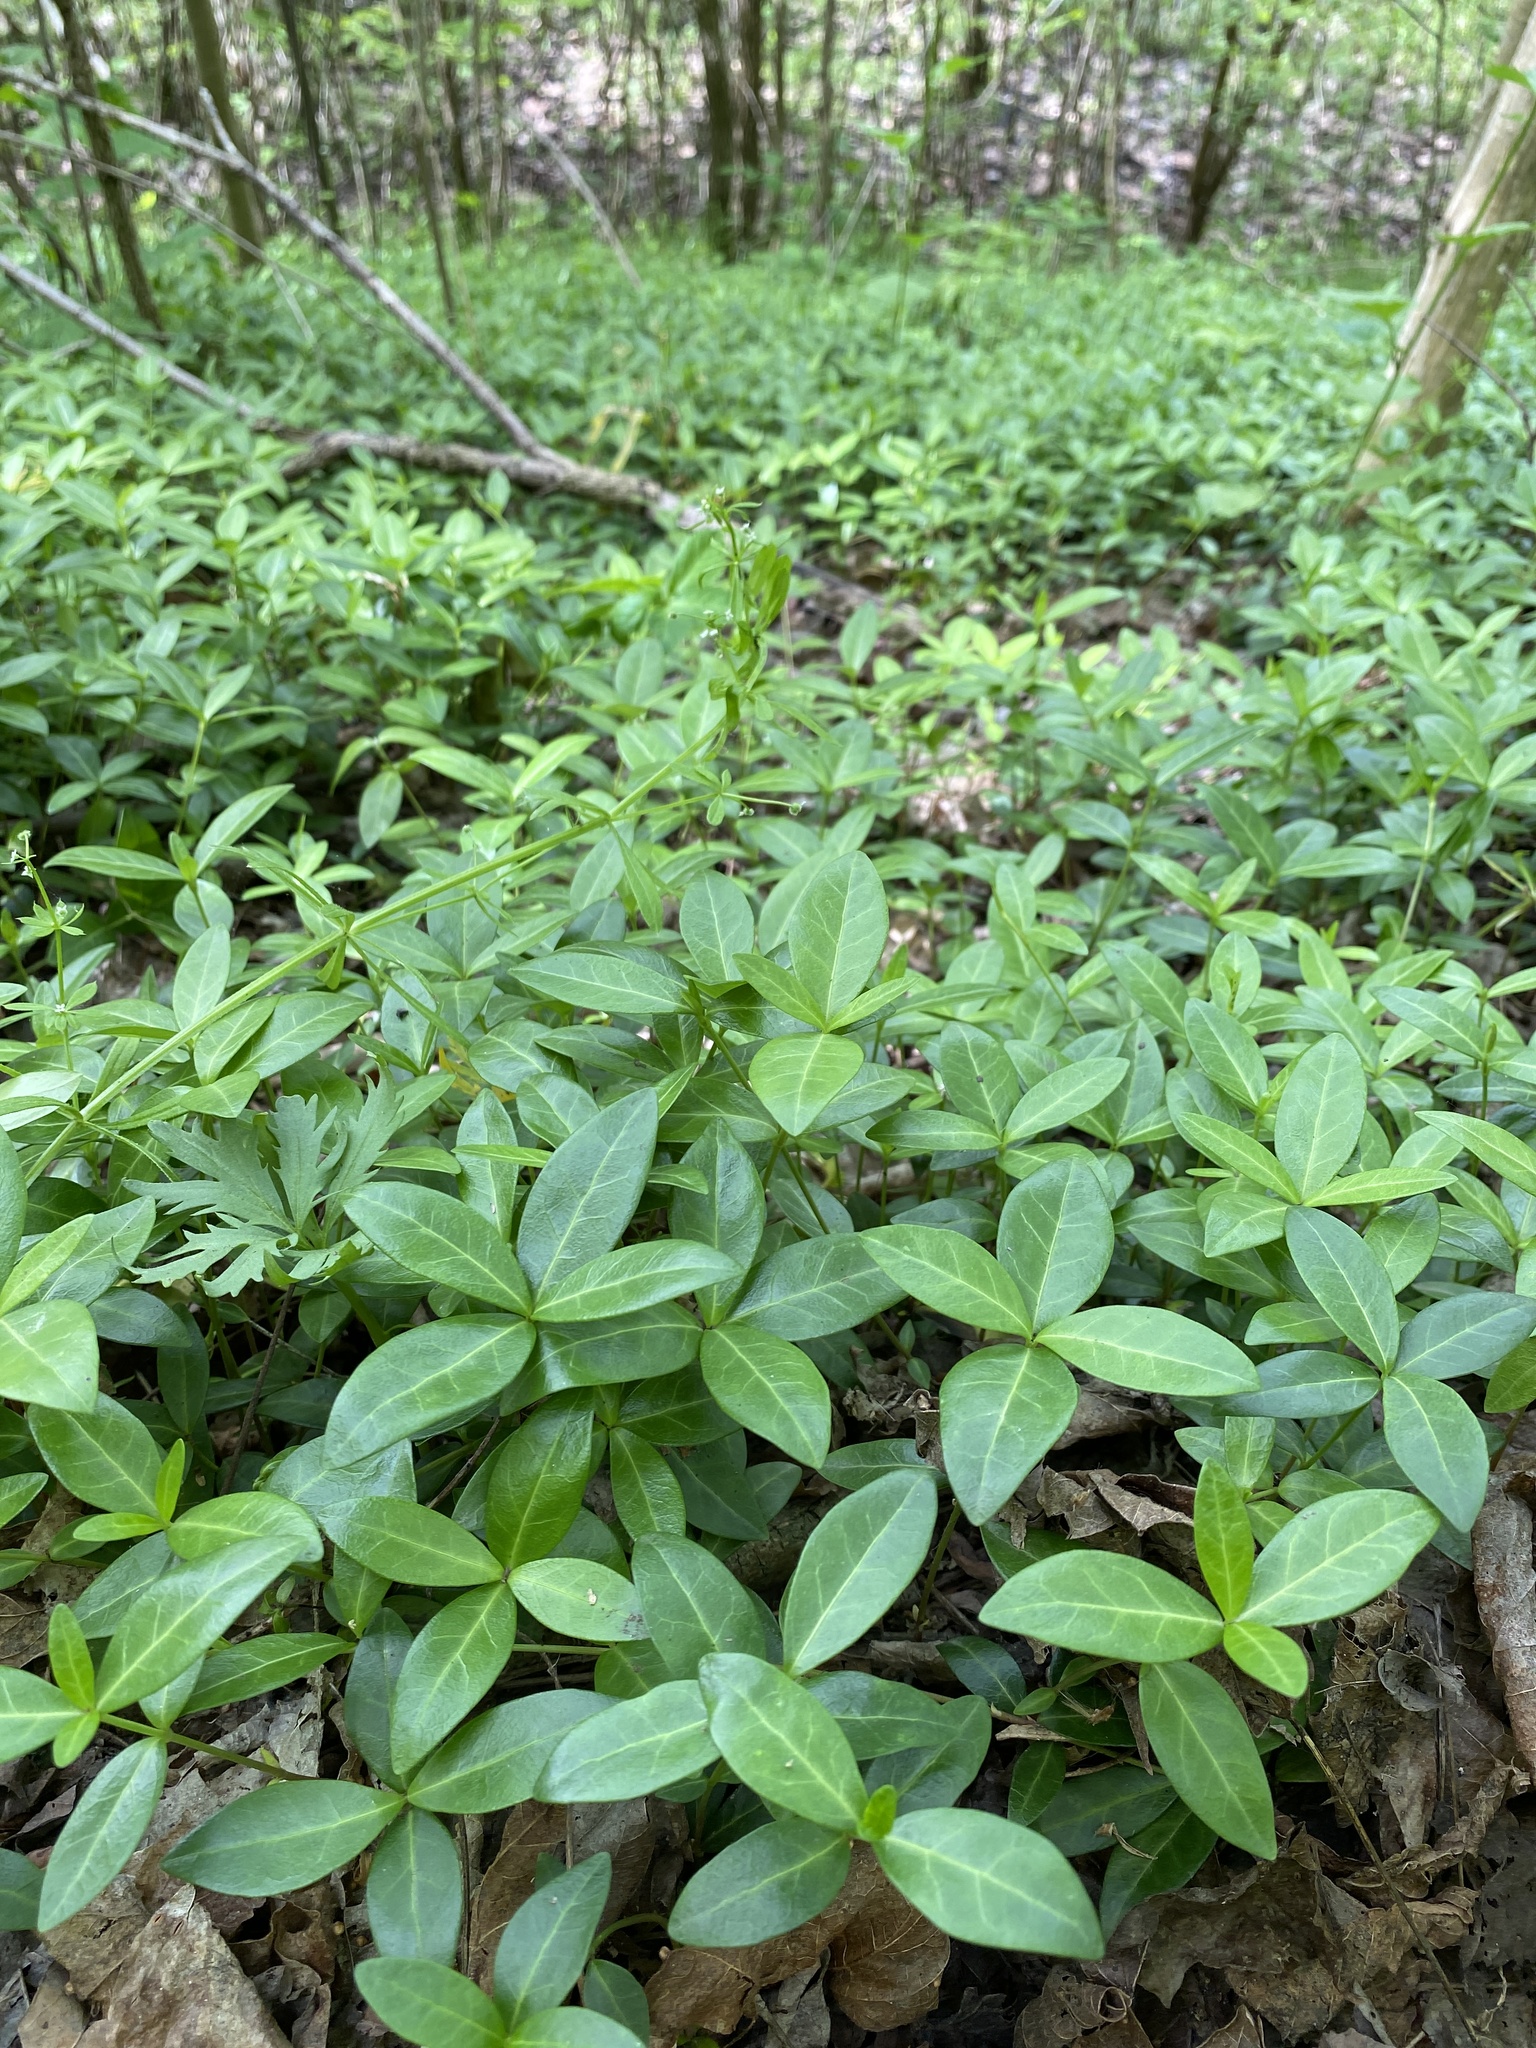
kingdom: Plantae
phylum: Tracheophyta
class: Magnoliopsida
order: Gentianales
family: Apocynaceae
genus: Vinca
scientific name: Vinca minor
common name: Lesser periwinkle
